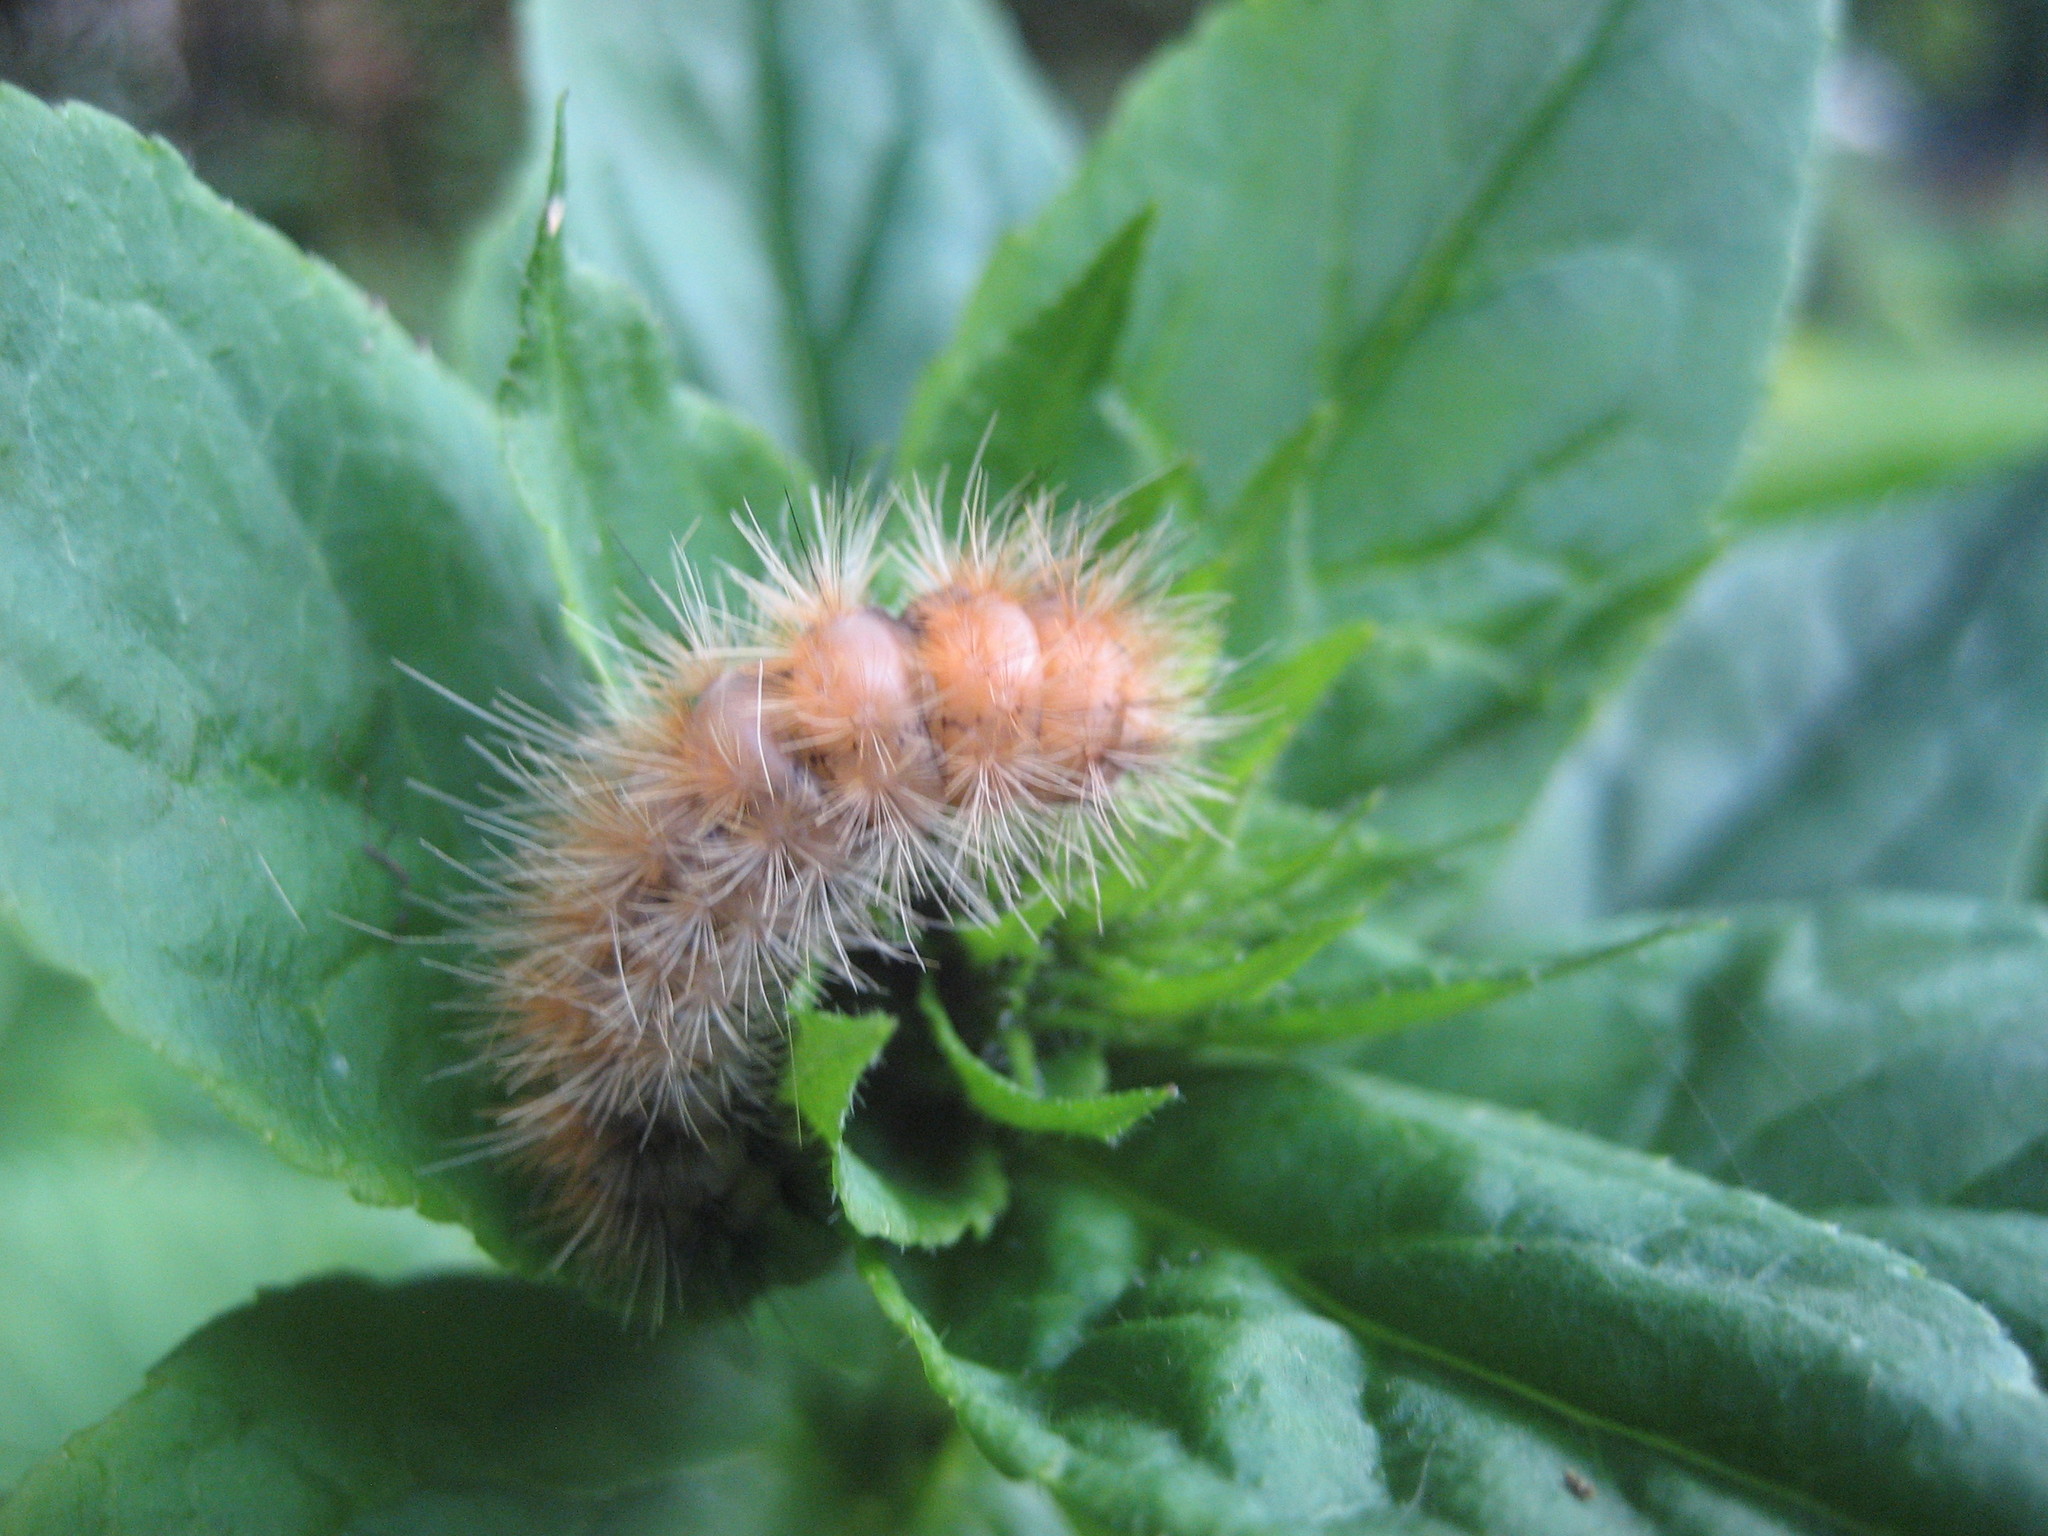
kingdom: Animalia
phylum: Arthropoda
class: Insecta
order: Lepidoptera
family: Erebidae
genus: Spilosoma
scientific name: Spilosoma virginica
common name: Virginia tiger moth
